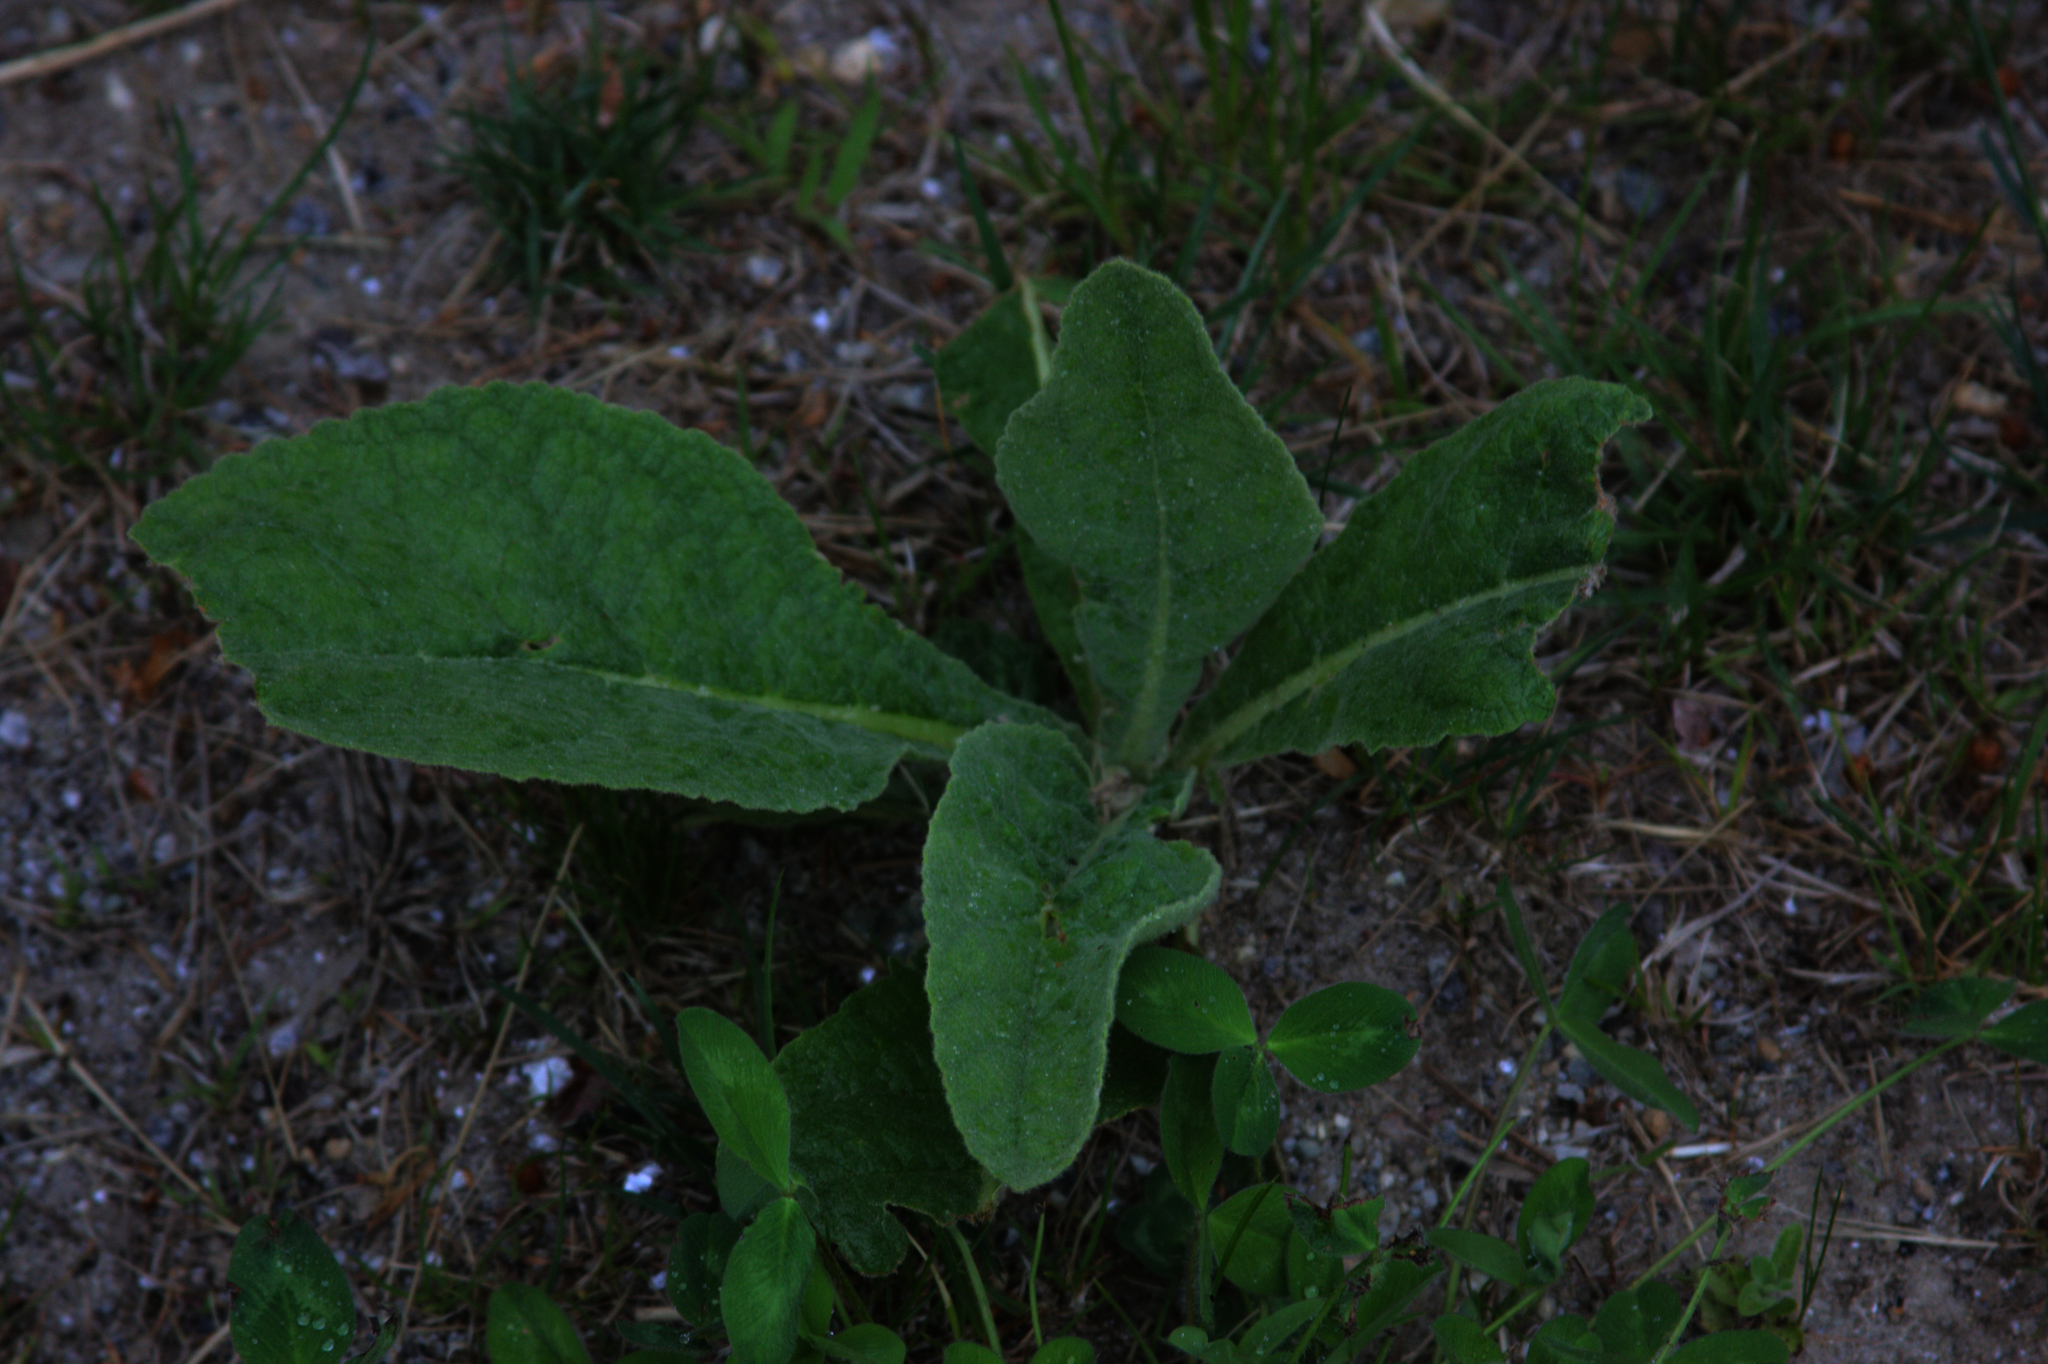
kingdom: Plantae
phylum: Tracheophyta
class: Magnoliopsida
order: Lamiales
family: Scrophulariaceae
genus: Verbascum
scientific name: Verbascum thapsus
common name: Common mullein
